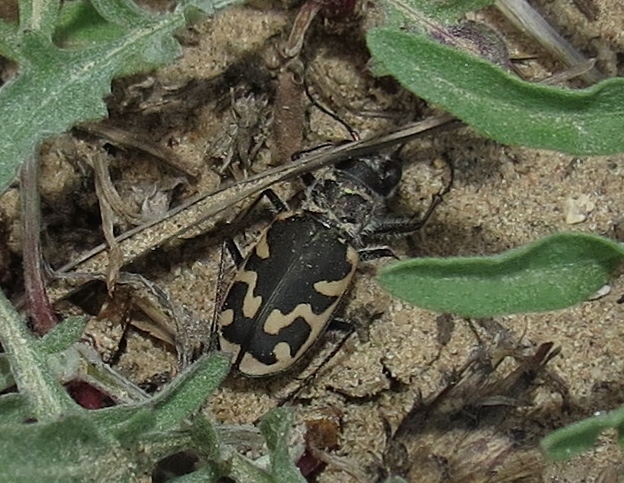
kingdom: Animalia
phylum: Arthropoda
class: Insecta
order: Coleoptera
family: Carabidae
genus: Cicindela
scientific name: Cicindela formosa
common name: Big sand tiger beetle
